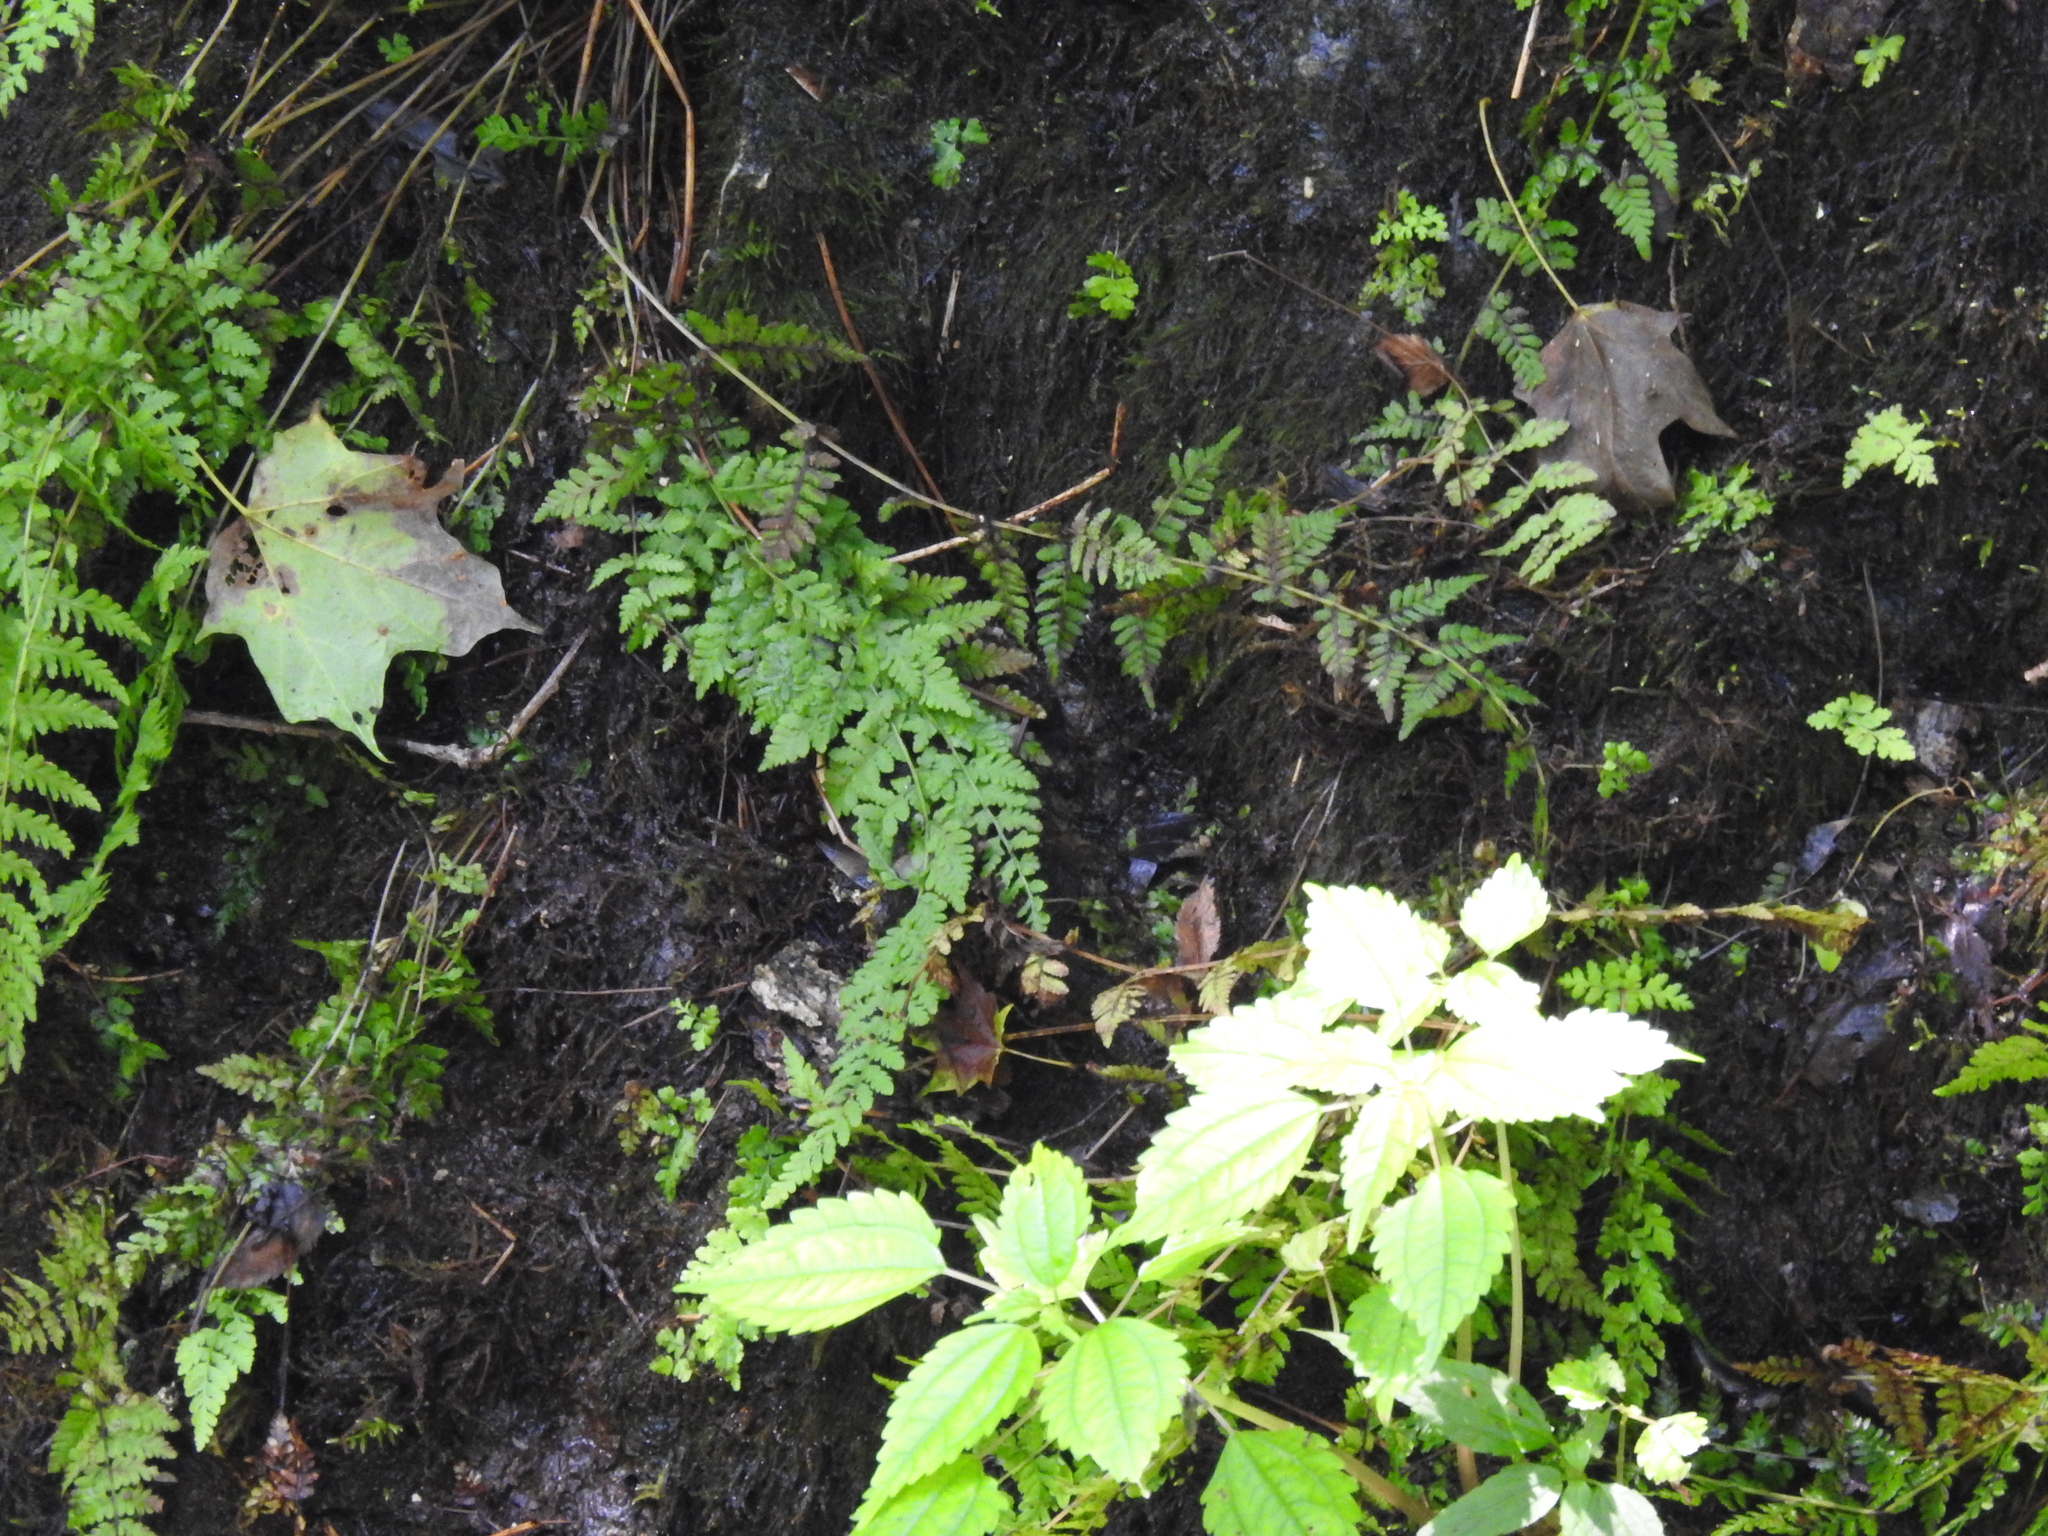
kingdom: Plantae
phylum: Tracheophyta
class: Polypodiopsida
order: Polypodiales
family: Cystopteridaceae
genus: Cystopteris
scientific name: Cystopteris bulbifera
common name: Bulblet bladder fern
